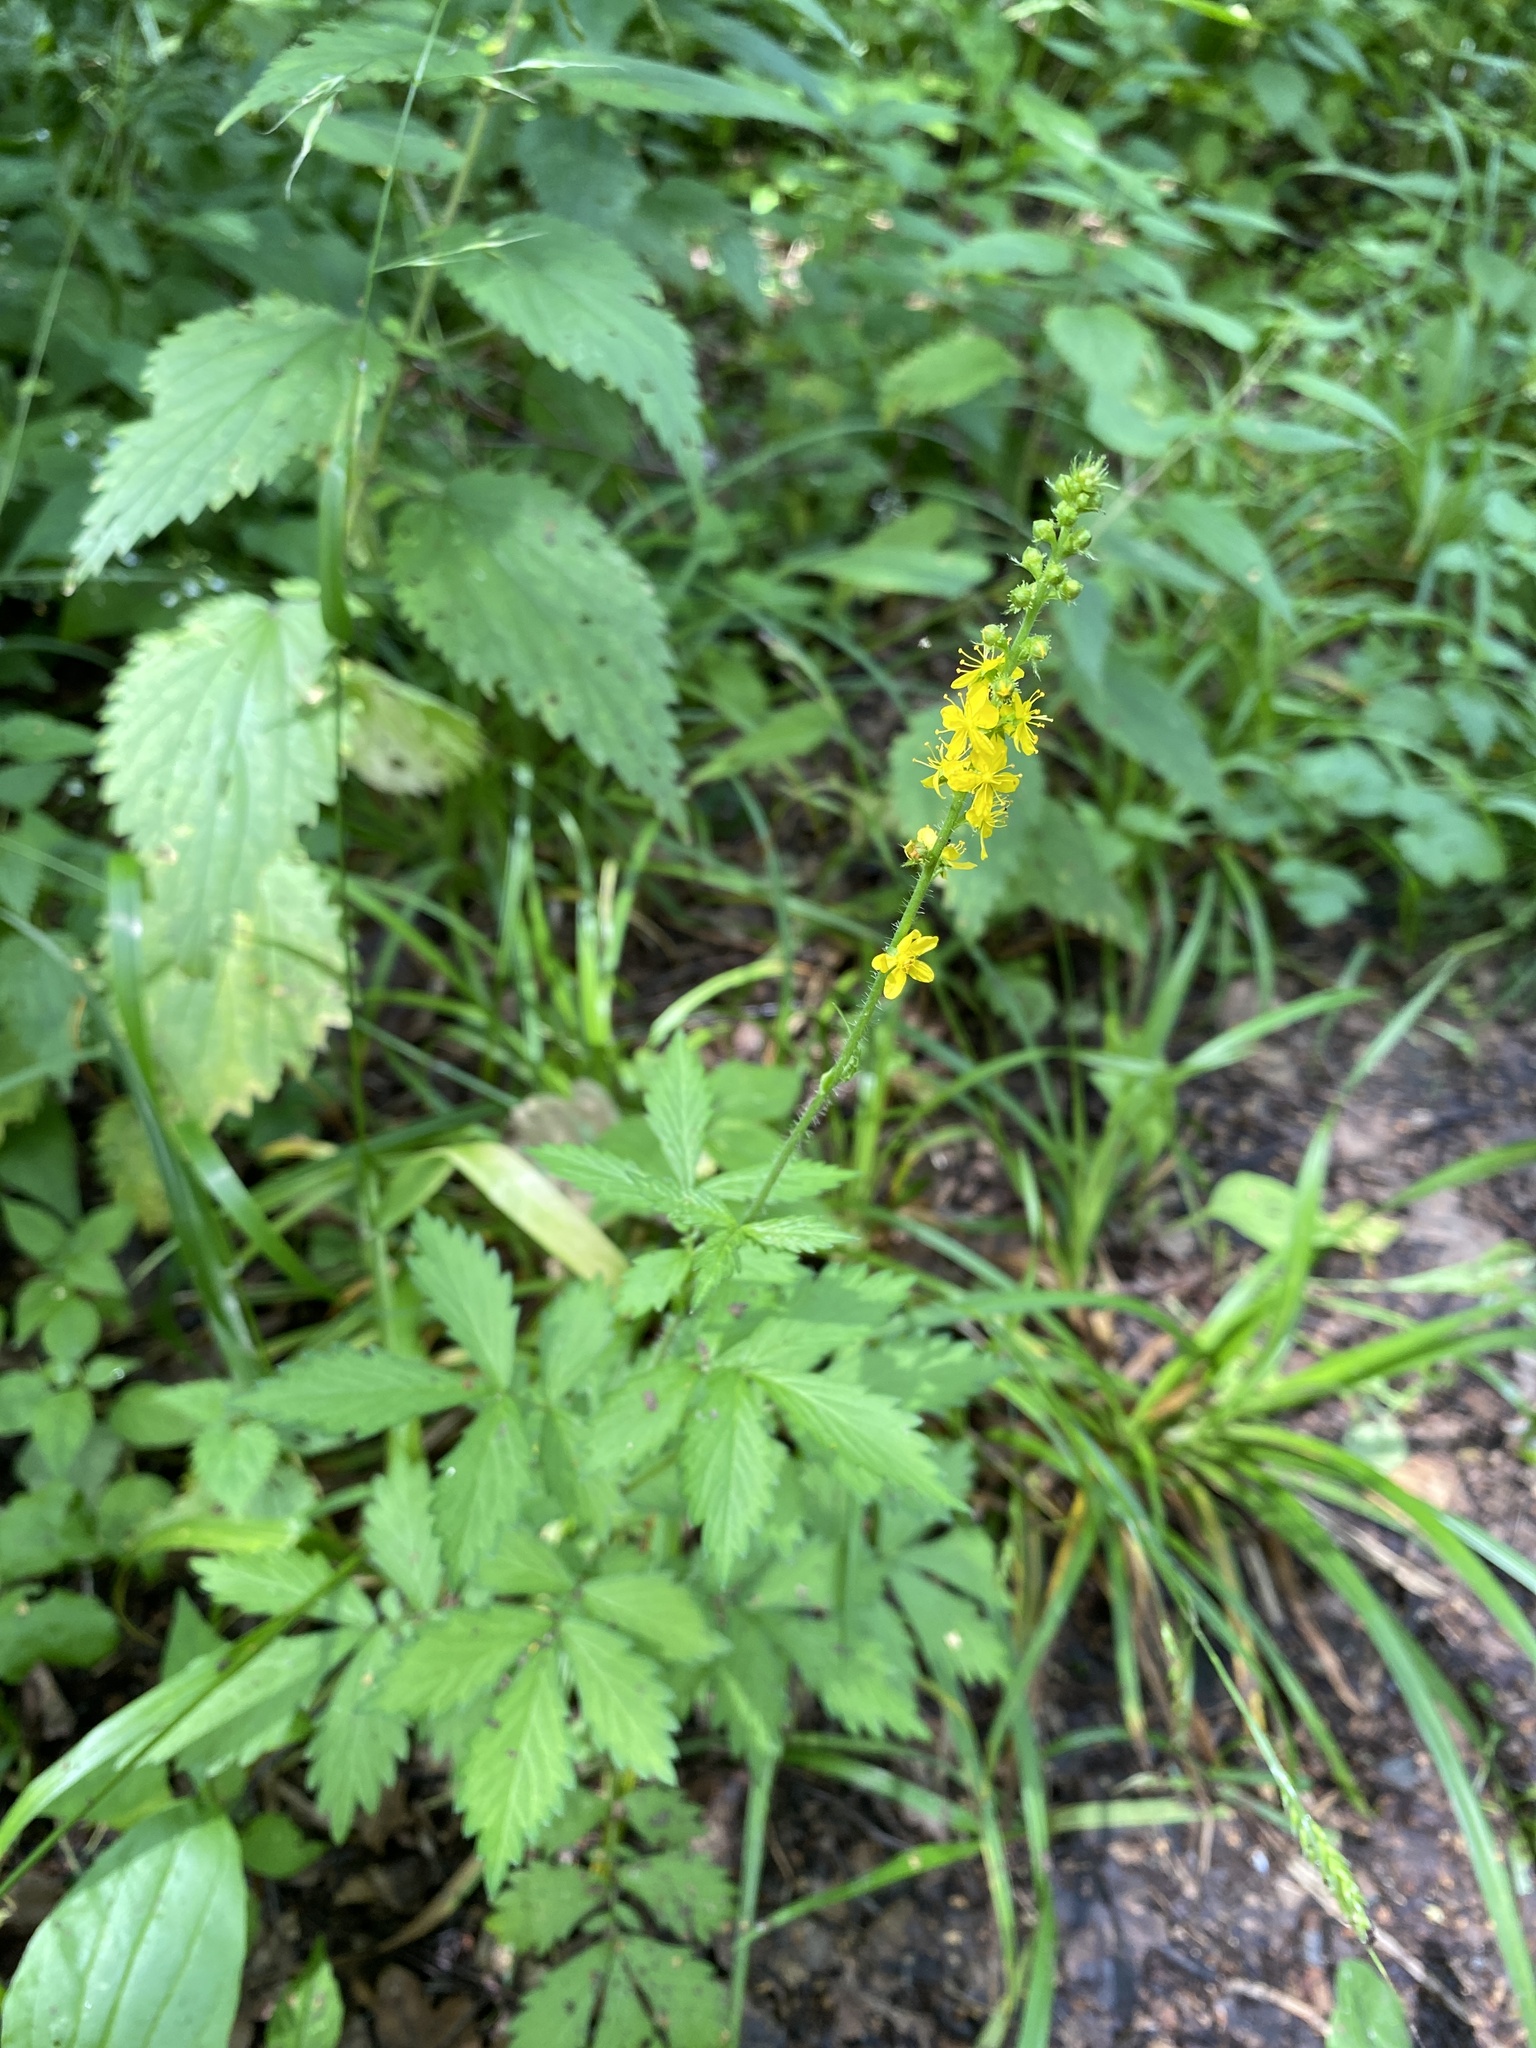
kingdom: Plantae
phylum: Tracheophyta
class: Magnoliopsida
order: Rosales
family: Rosaceae
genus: Agrimonia
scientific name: Agrimonia pilosa
